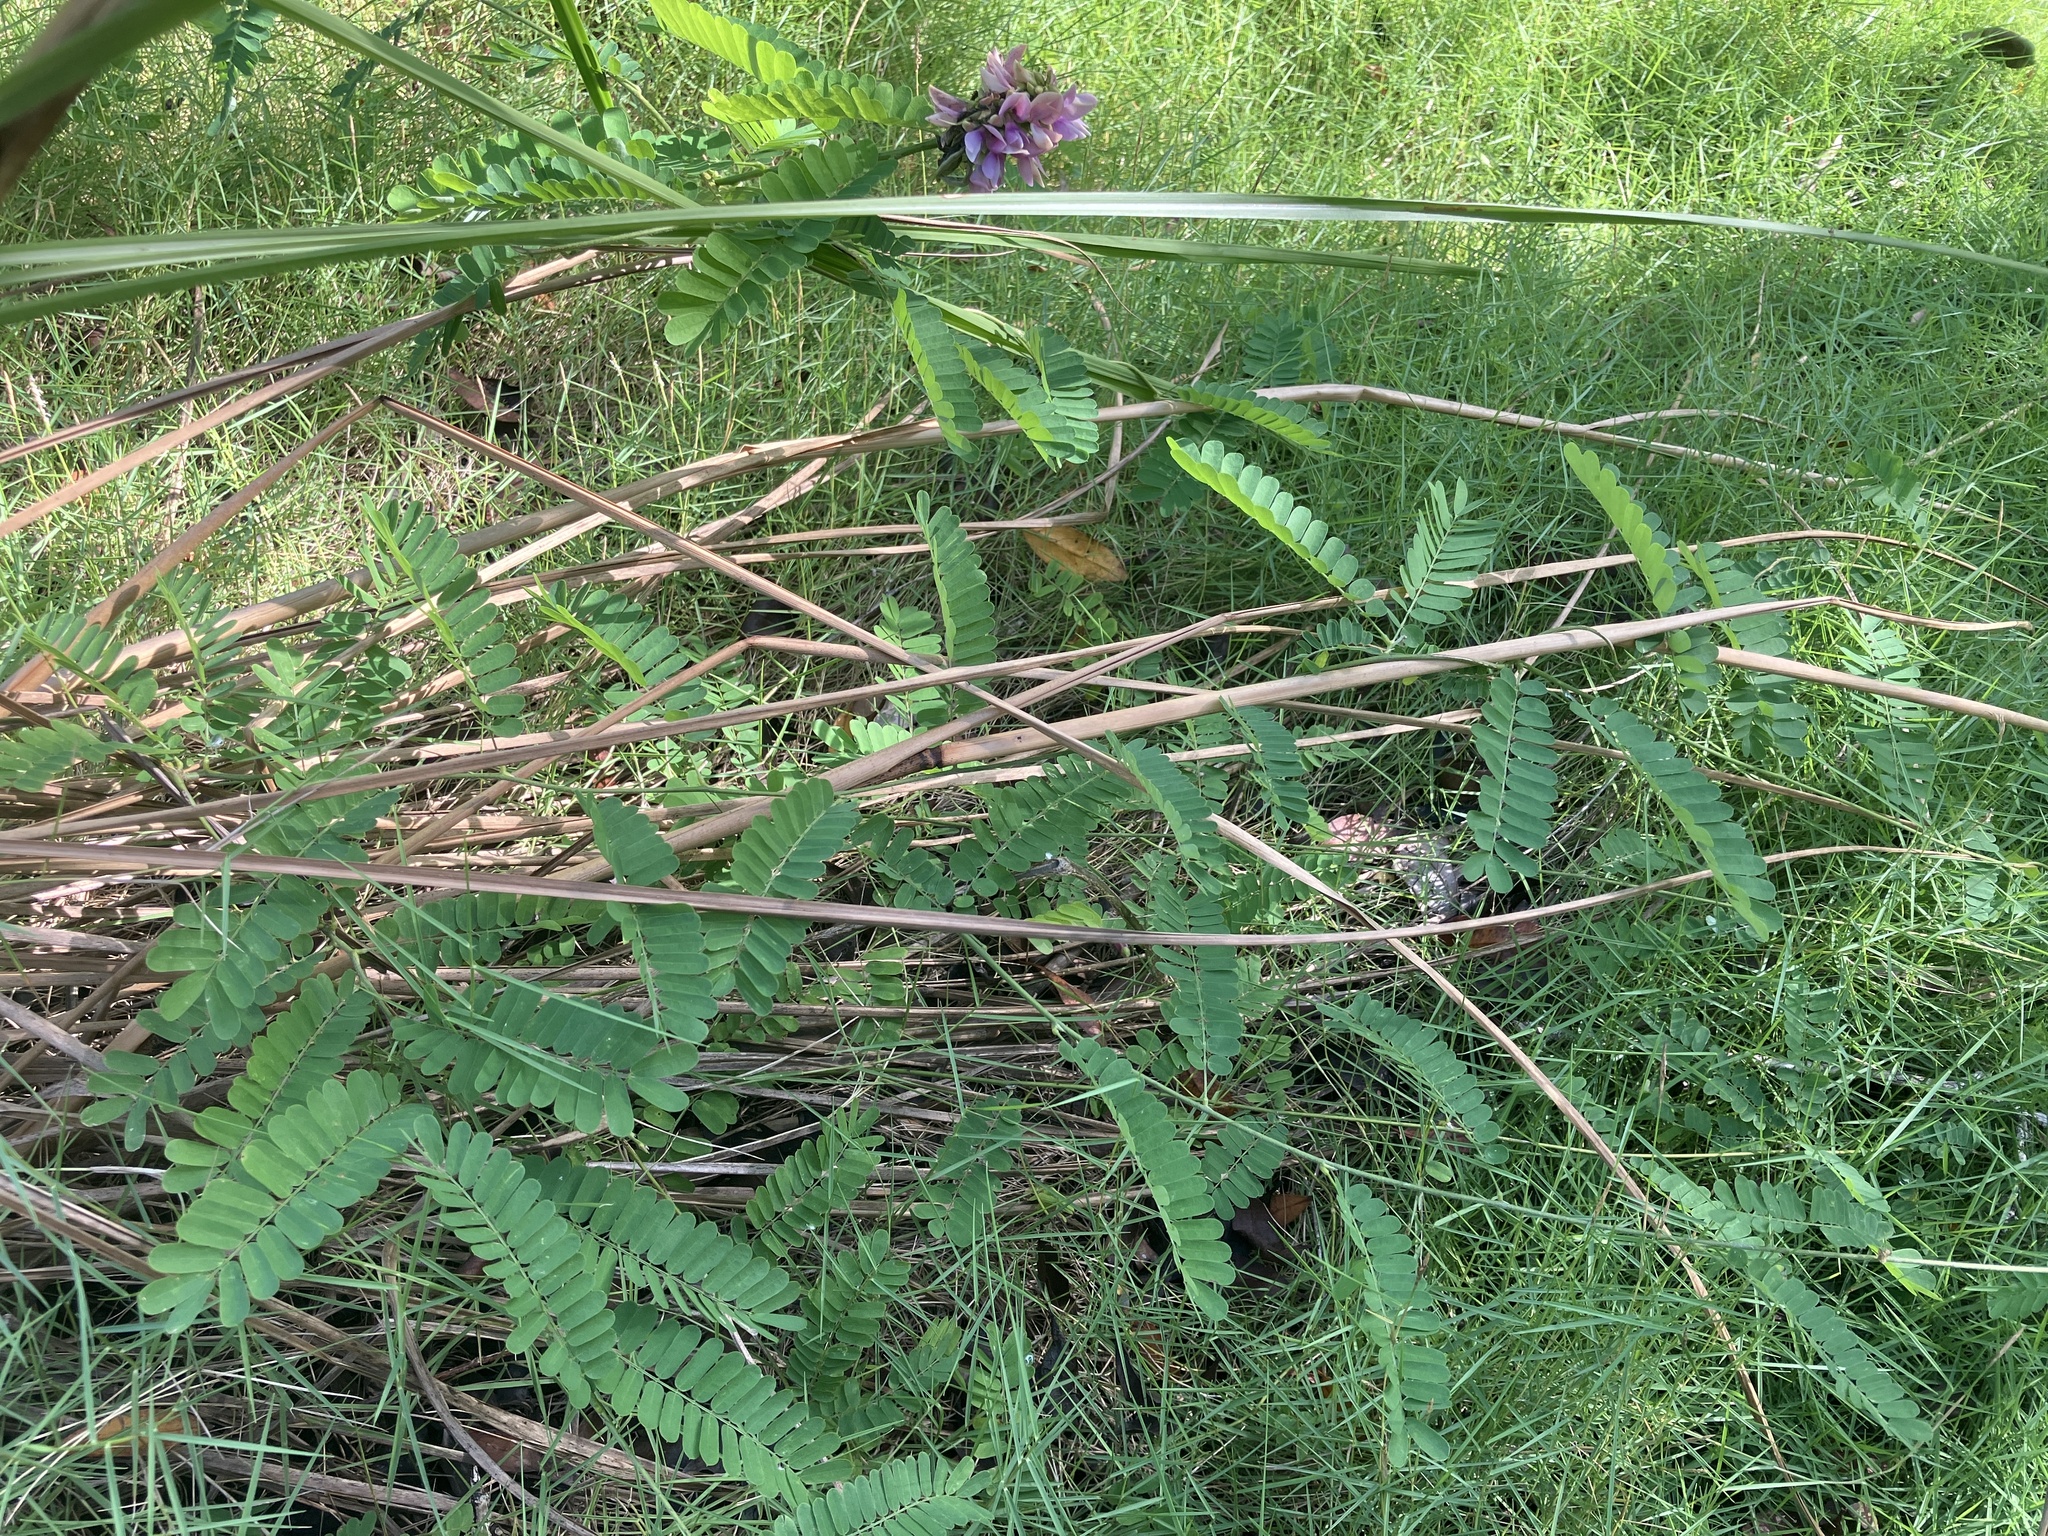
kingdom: Plantae
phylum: Tracheophyta
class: Magnoliopsida
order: Fabales
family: Fabaceae
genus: Abrus
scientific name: Abrus precatorius
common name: Rosarypea
